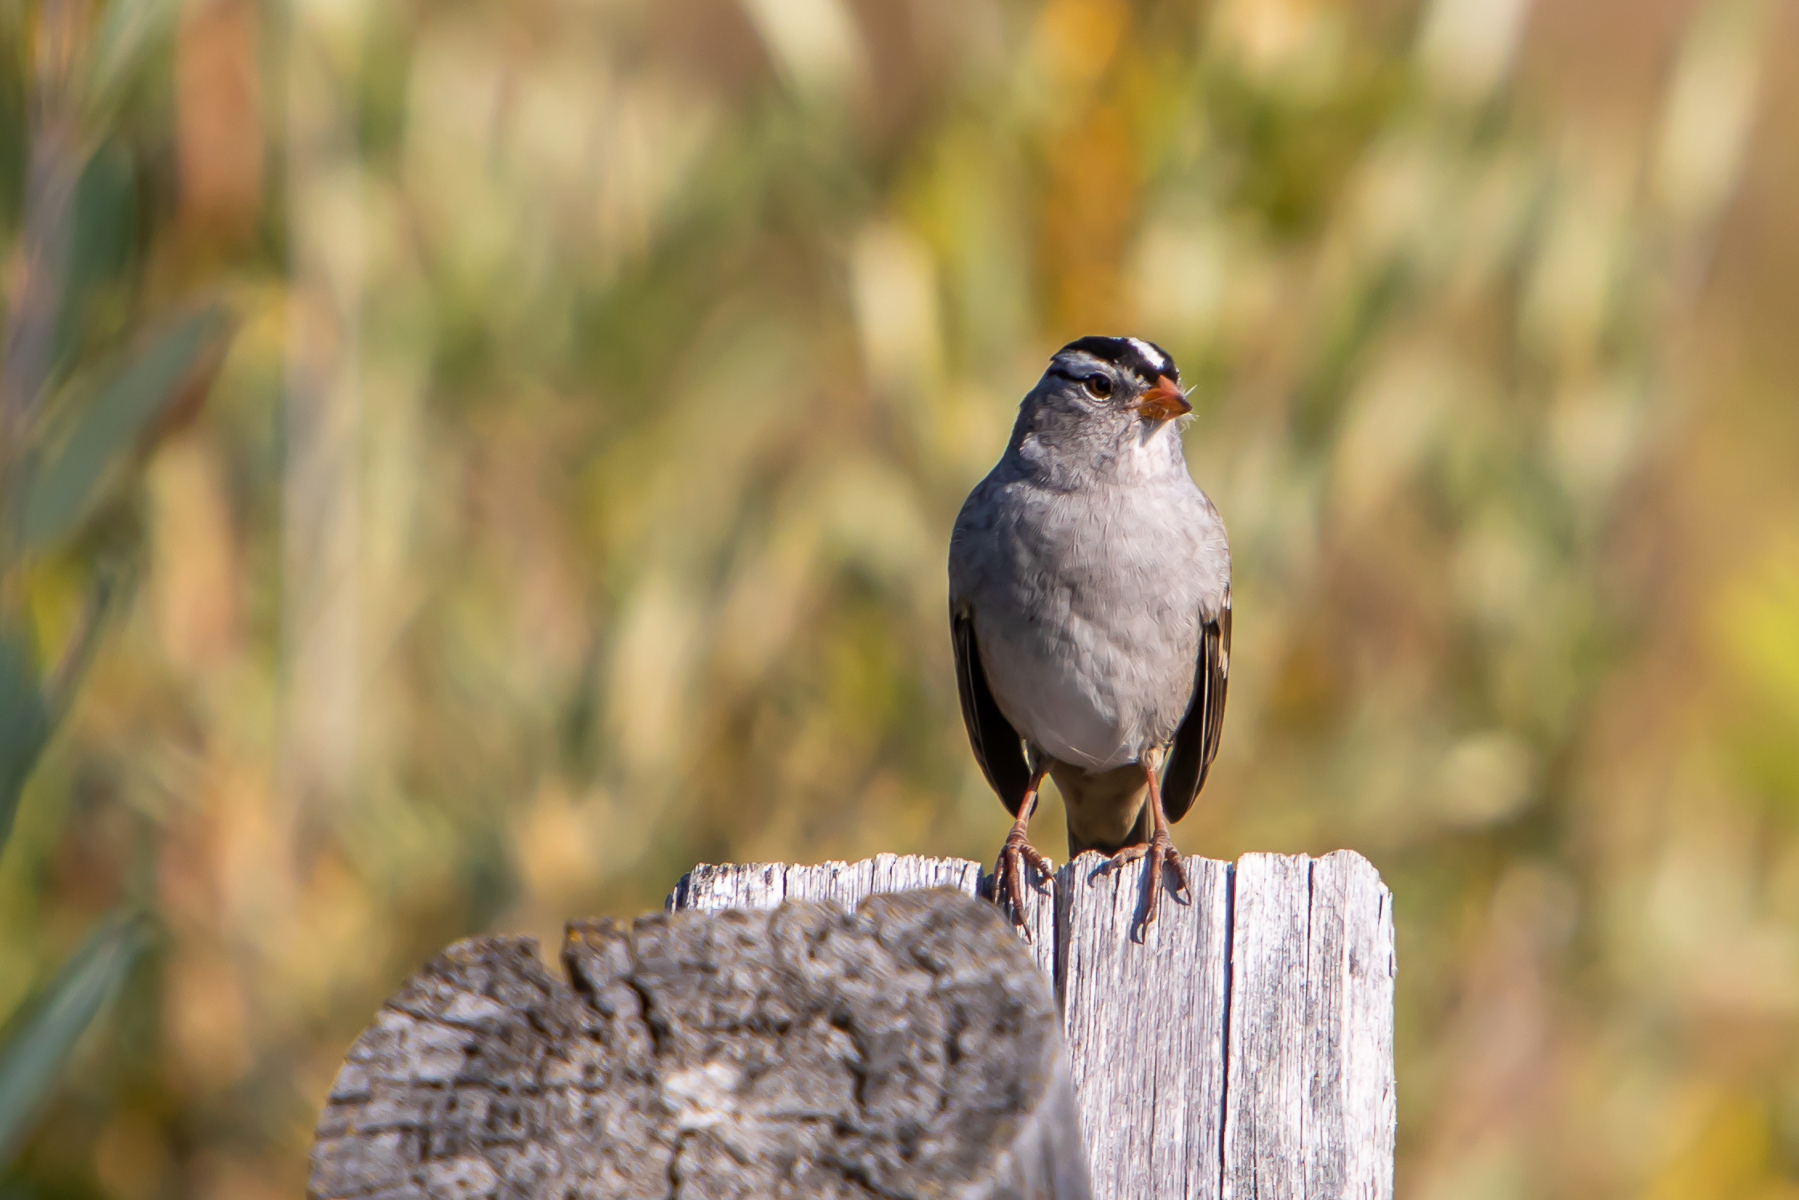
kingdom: Animalia
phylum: Chordata
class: Aves
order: Passeriformes
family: Passerellidae
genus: Zonotrichia
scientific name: Zonotrichia leucophrys
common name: White-crowned sparrow
